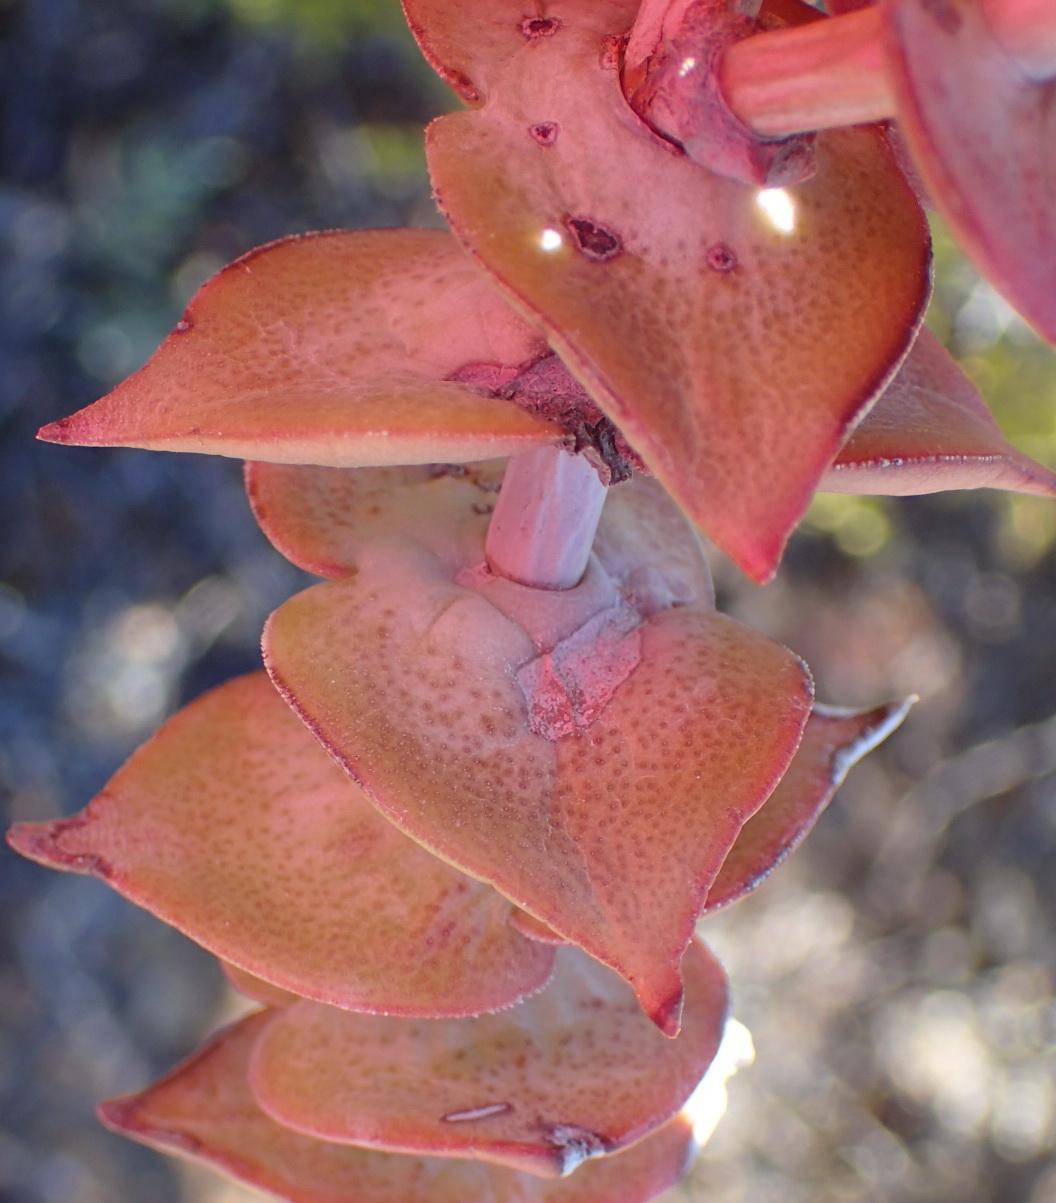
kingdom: Plantae
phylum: Tracheophyta
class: Magnoliopsida
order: Saxifragales
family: Crassulaceae
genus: Crassula
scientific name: Crassula perforata
